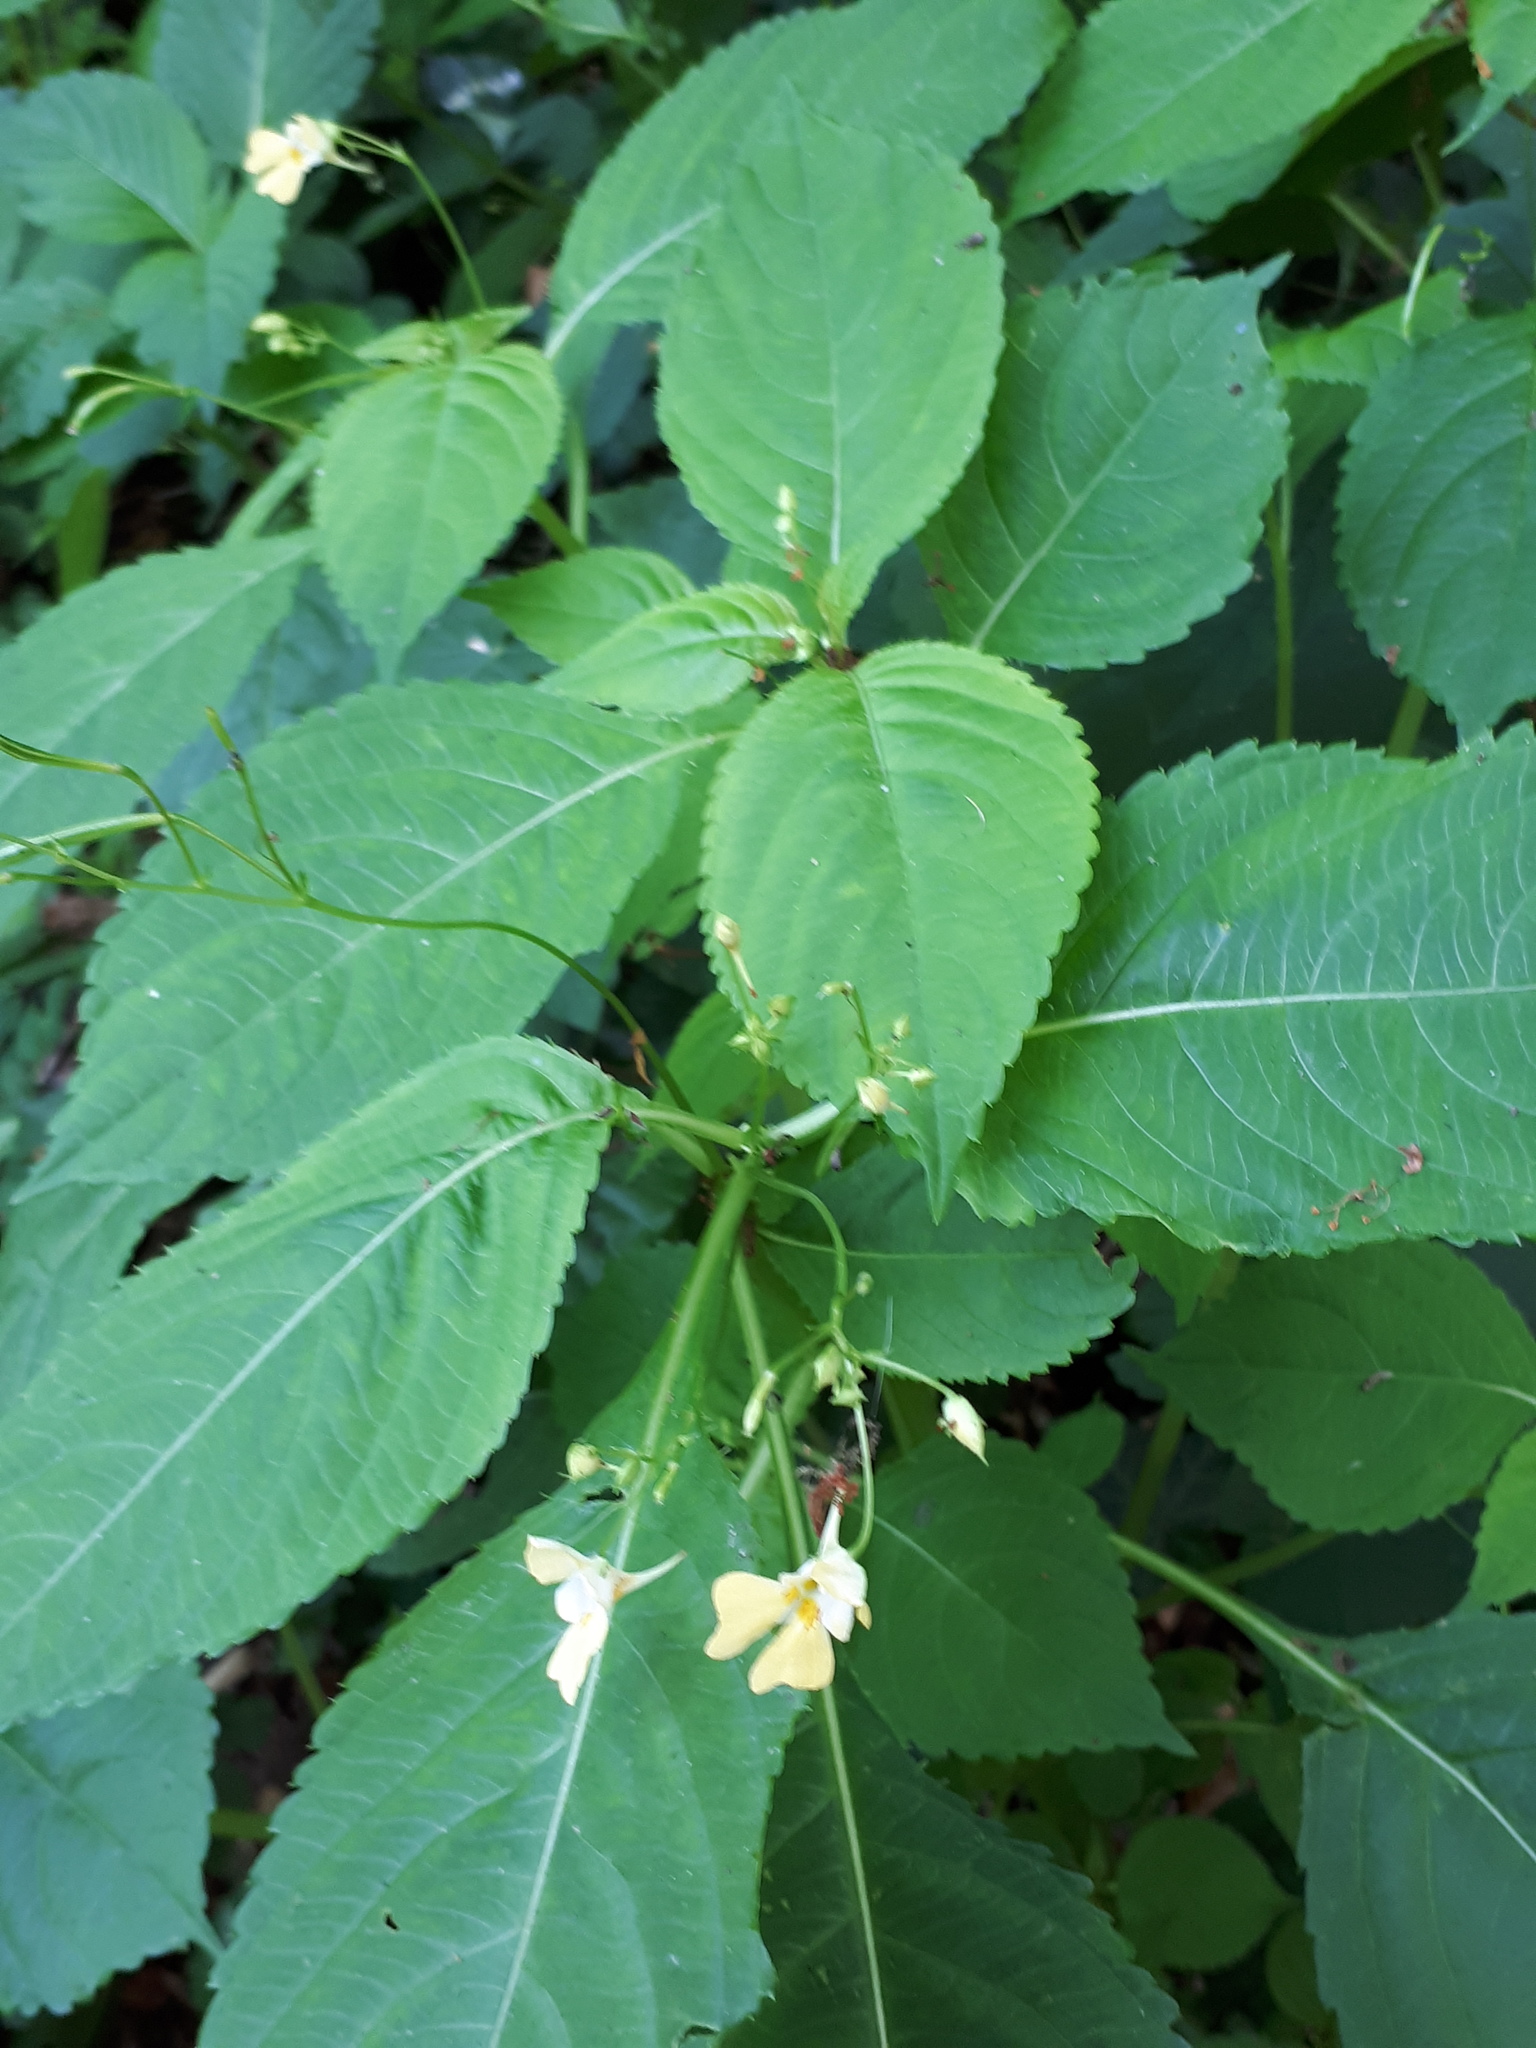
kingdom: Plantae
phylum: Tracheophyta
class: Magnoliopsida
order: Ericales
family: Balsaminaceae
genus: Impatiens
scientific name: Impatiens parviflora
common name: Small balsam
